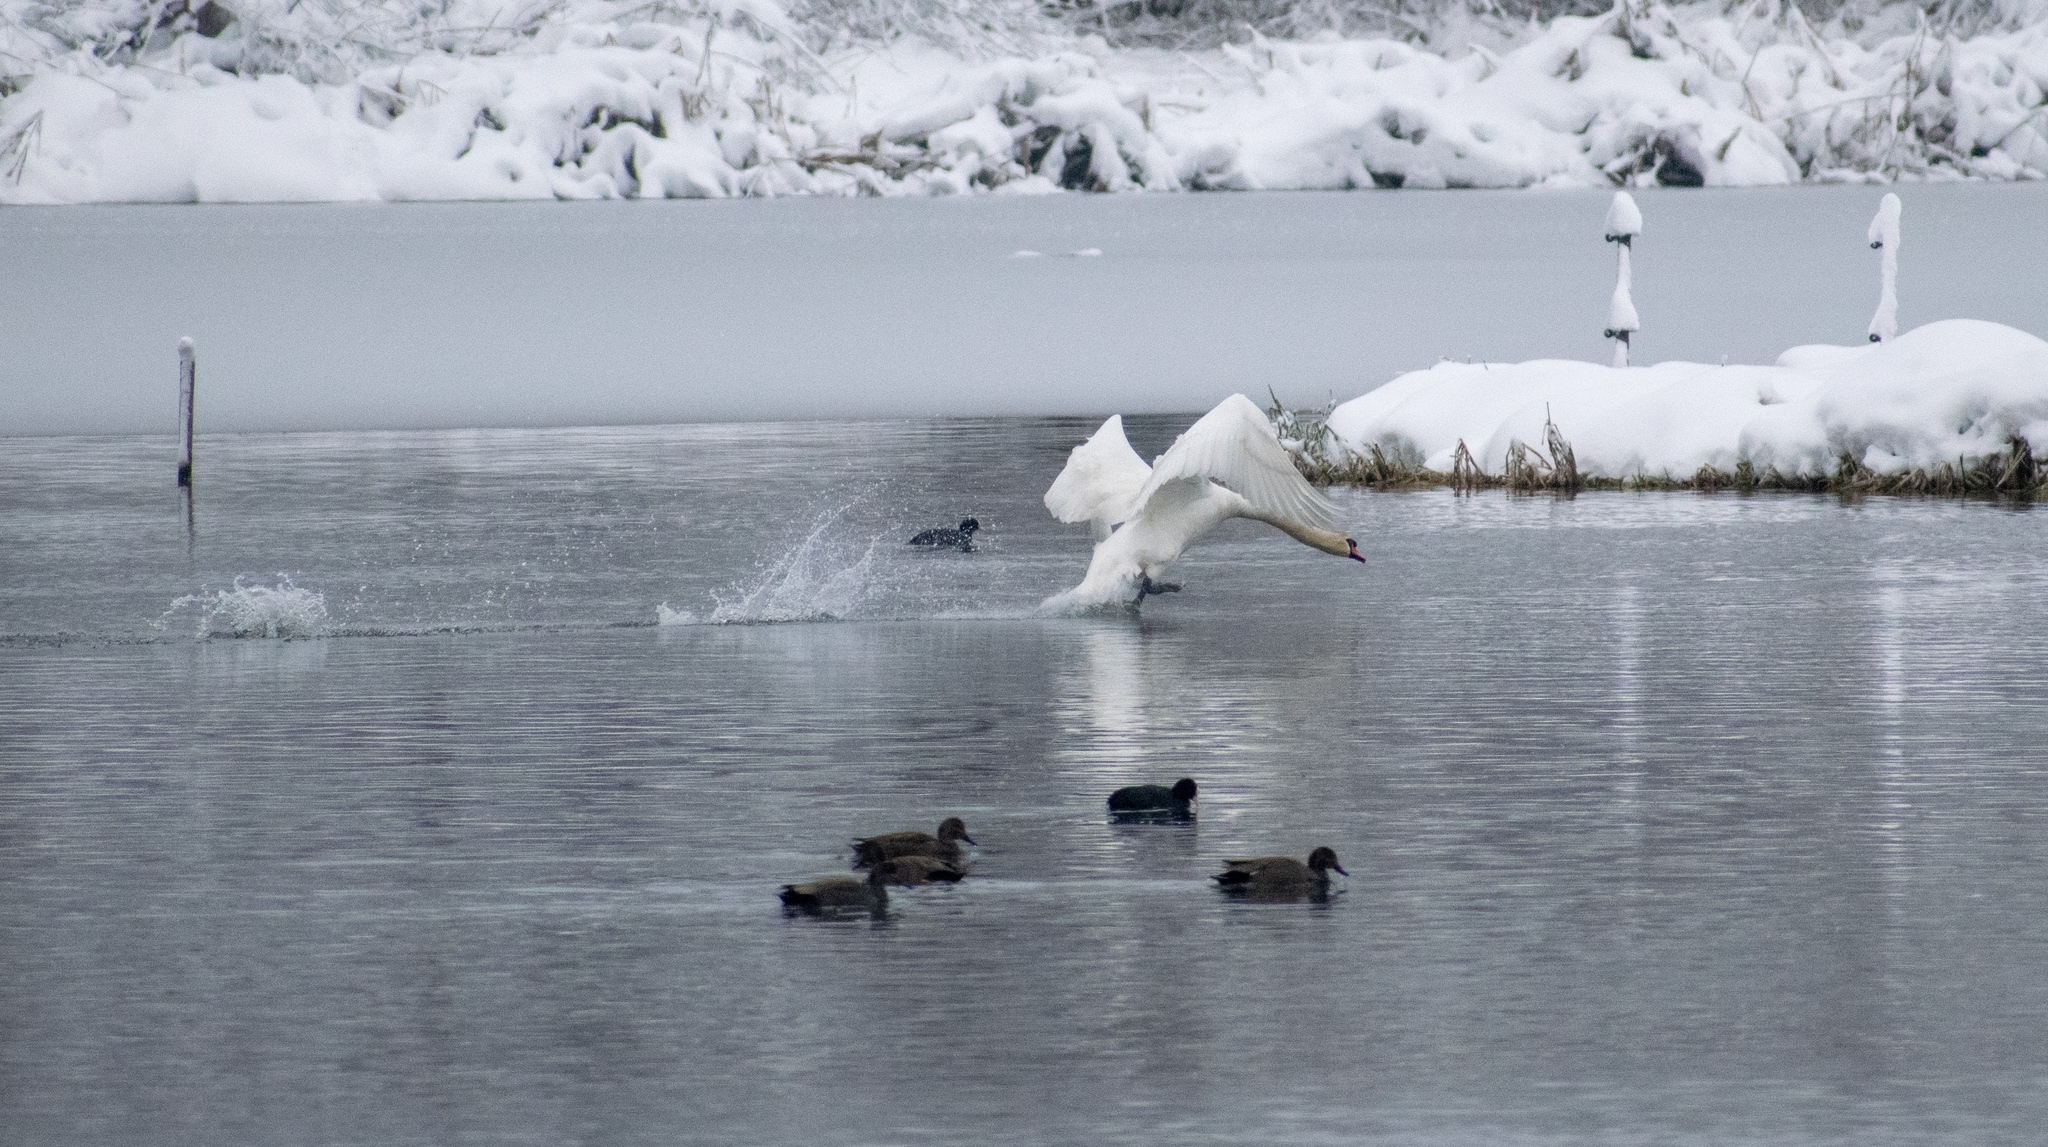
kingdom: Animalia
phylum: Chordata
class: Aves
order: Anseriformes
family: Anatidae
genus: Mareca
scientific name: Mareca strepera
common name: Gadwall
